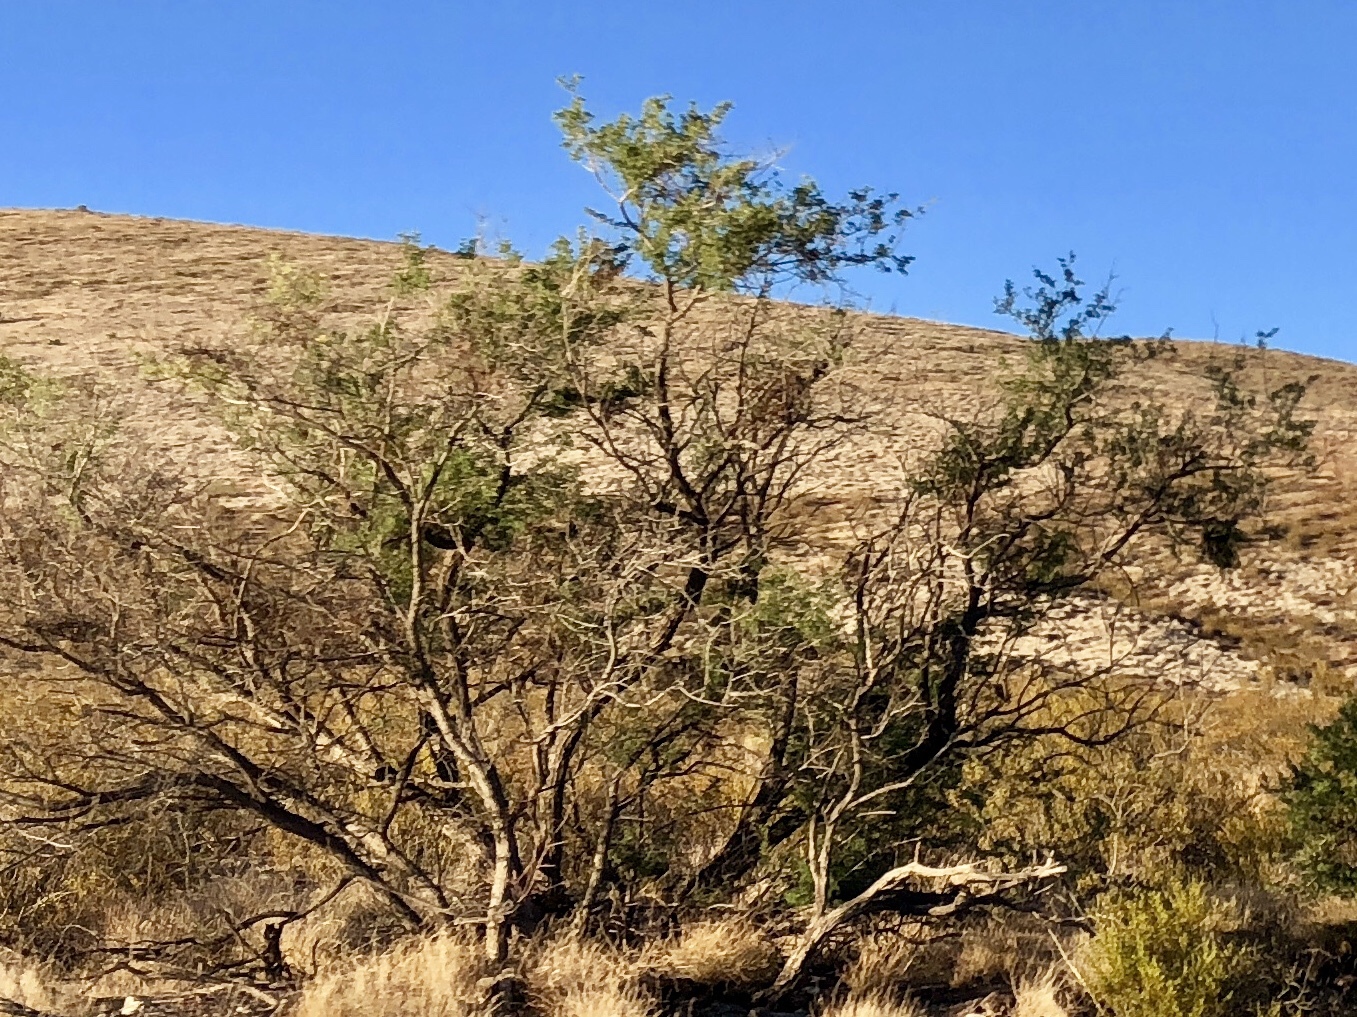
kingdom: Plantae
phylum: Tracheophyta
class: Magnoliopsida
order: Fabales
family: Fabaceae
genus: Senegalia
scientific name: Senegalia greggii
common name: Texas-mimosa
